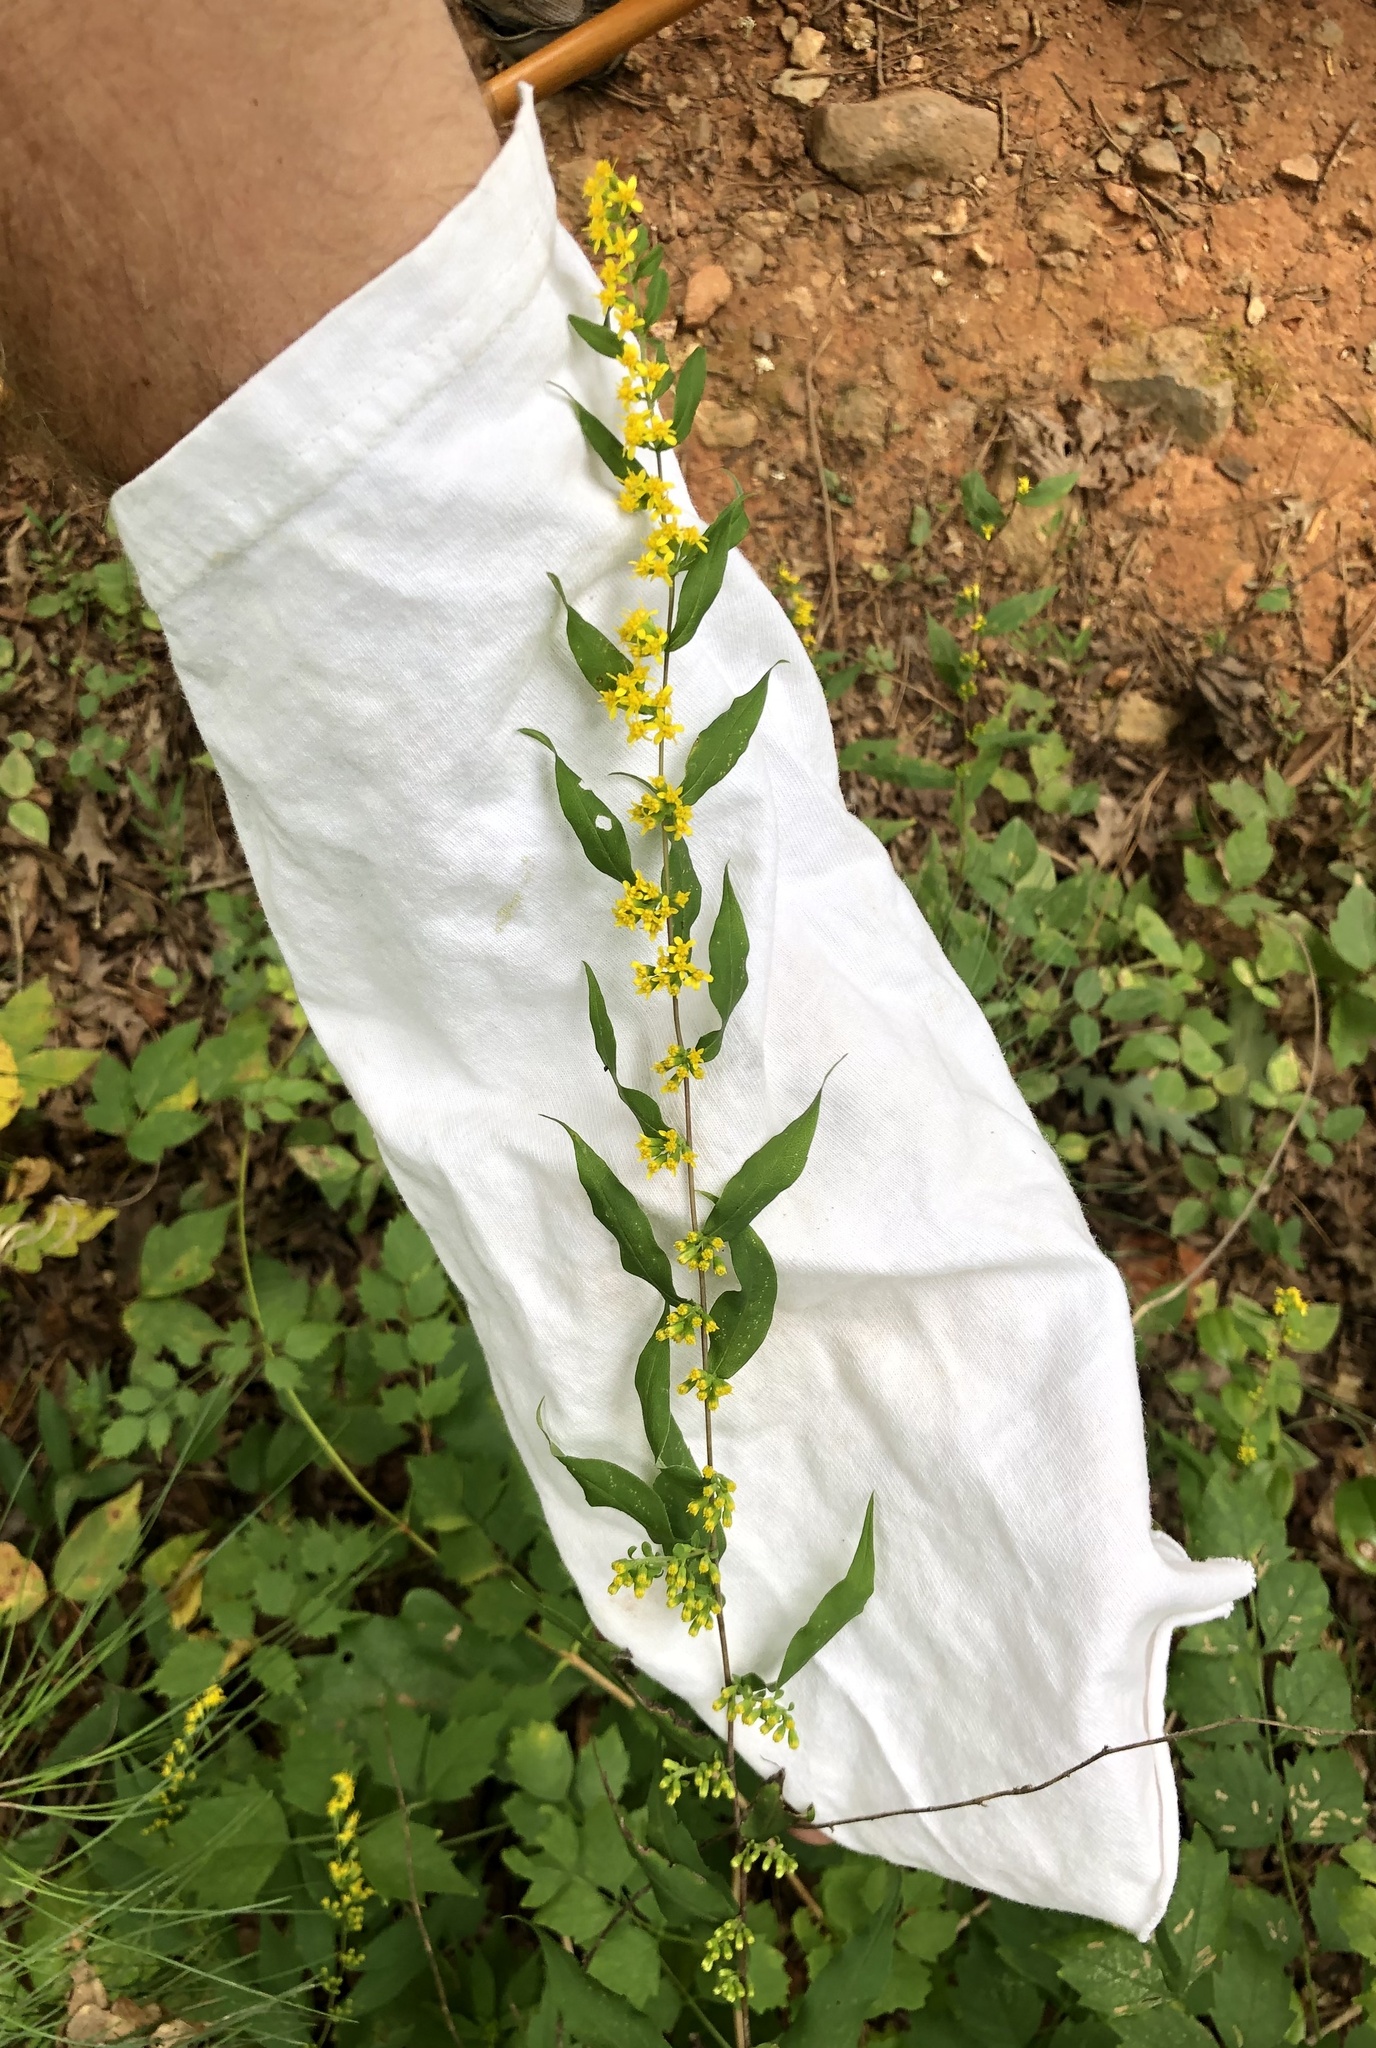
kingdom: Plantae
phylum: Tracheophyta
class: Magnoliopsida
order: Asterales
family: Asteraceae
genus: Solidago
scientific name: Solidago caesia
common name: Woodland goldenrod
